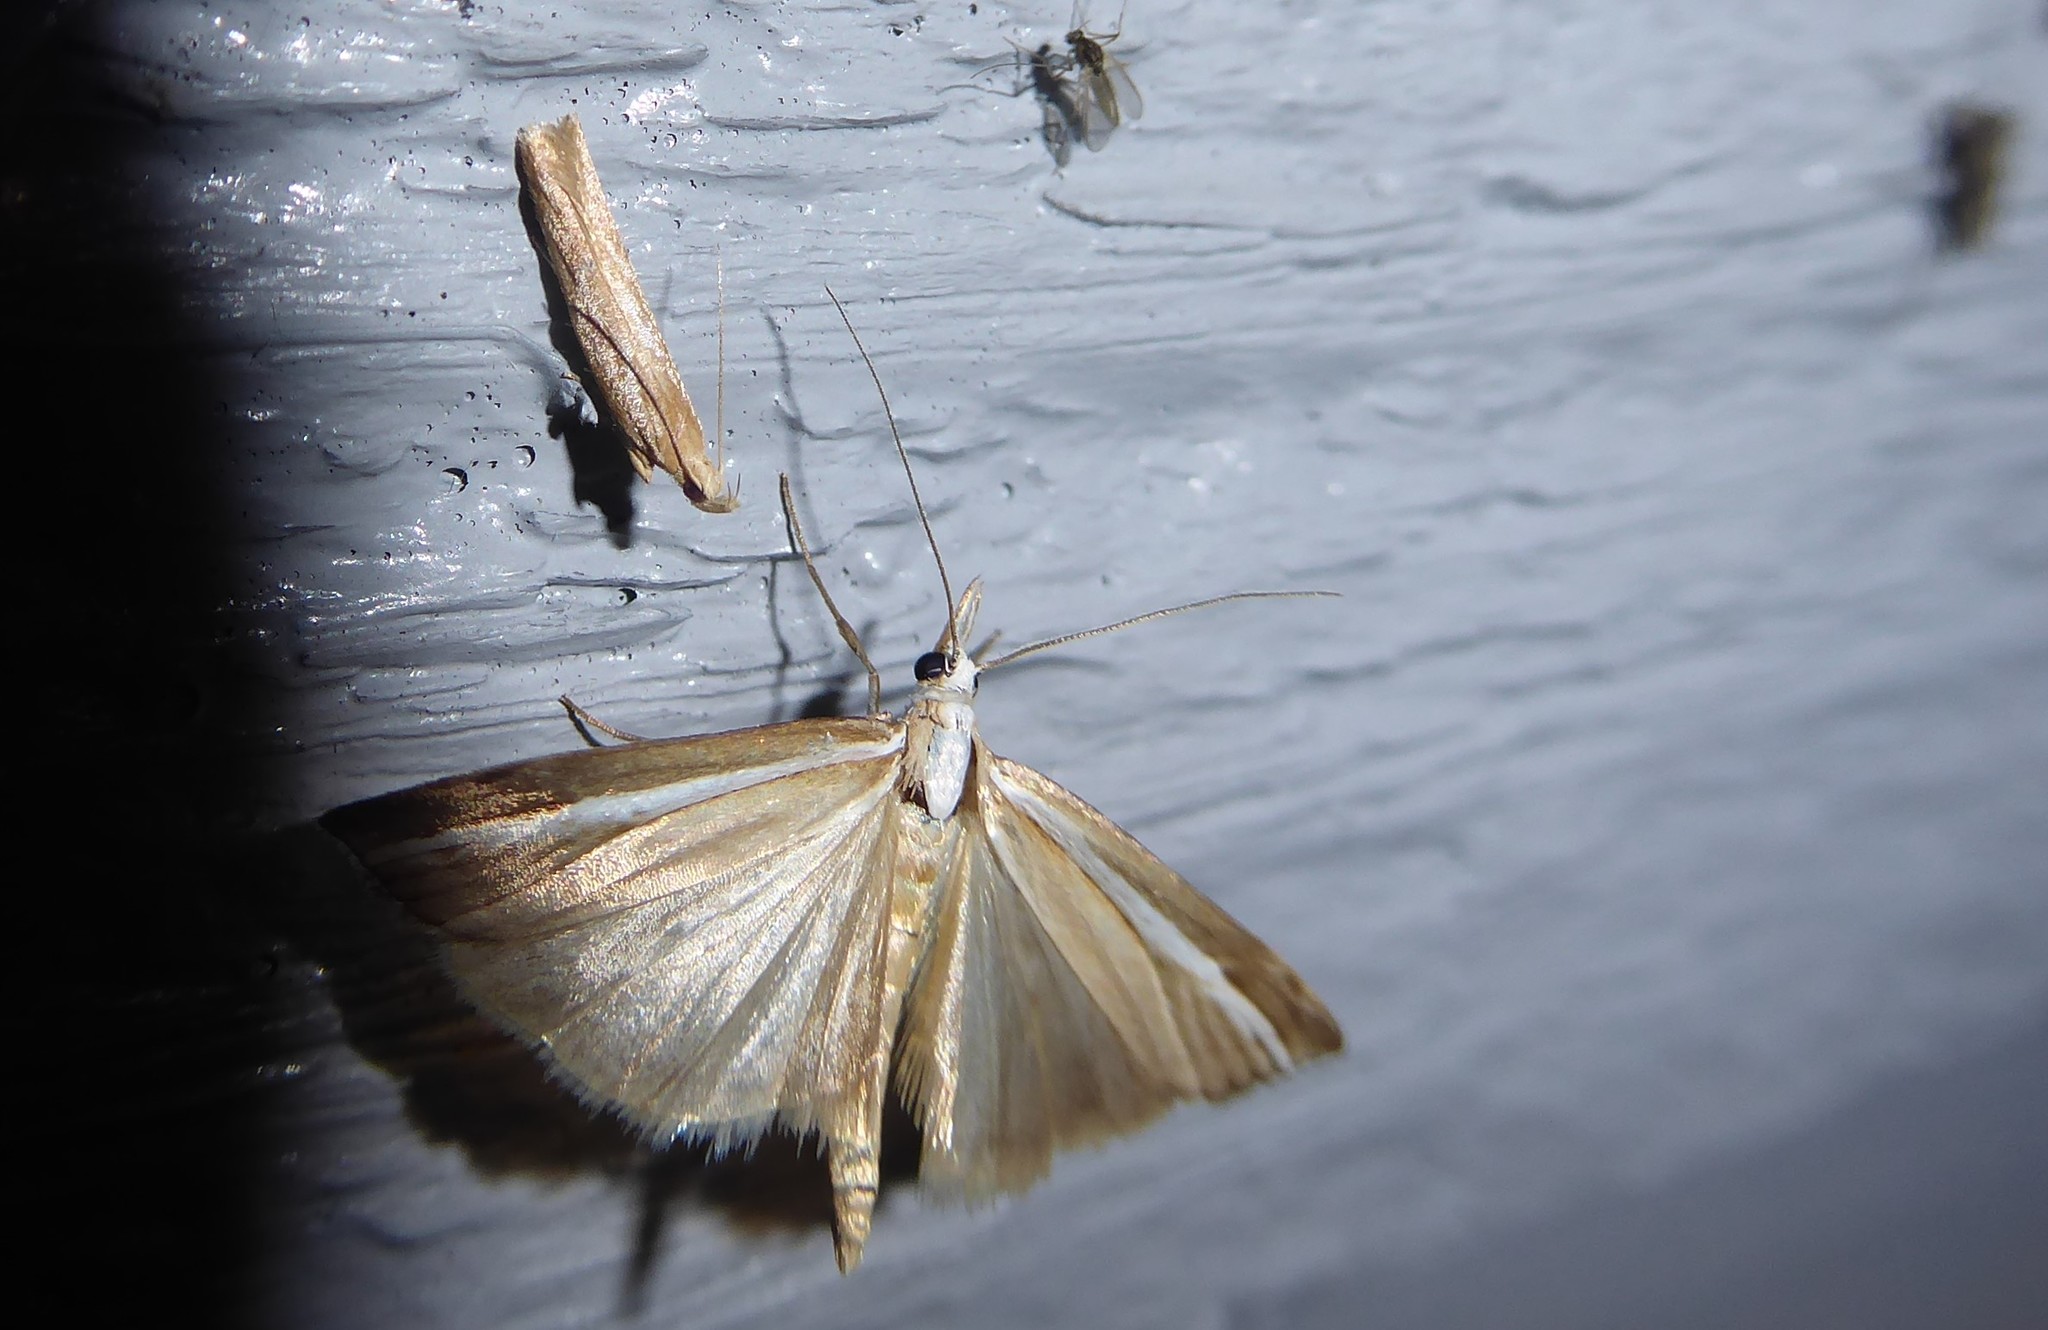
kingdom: Animalia
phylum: Arthropoda
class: Insecta
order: Lepidoptera
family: Crambidae
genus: Orocrambus
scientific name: Orocrambus vittellus
